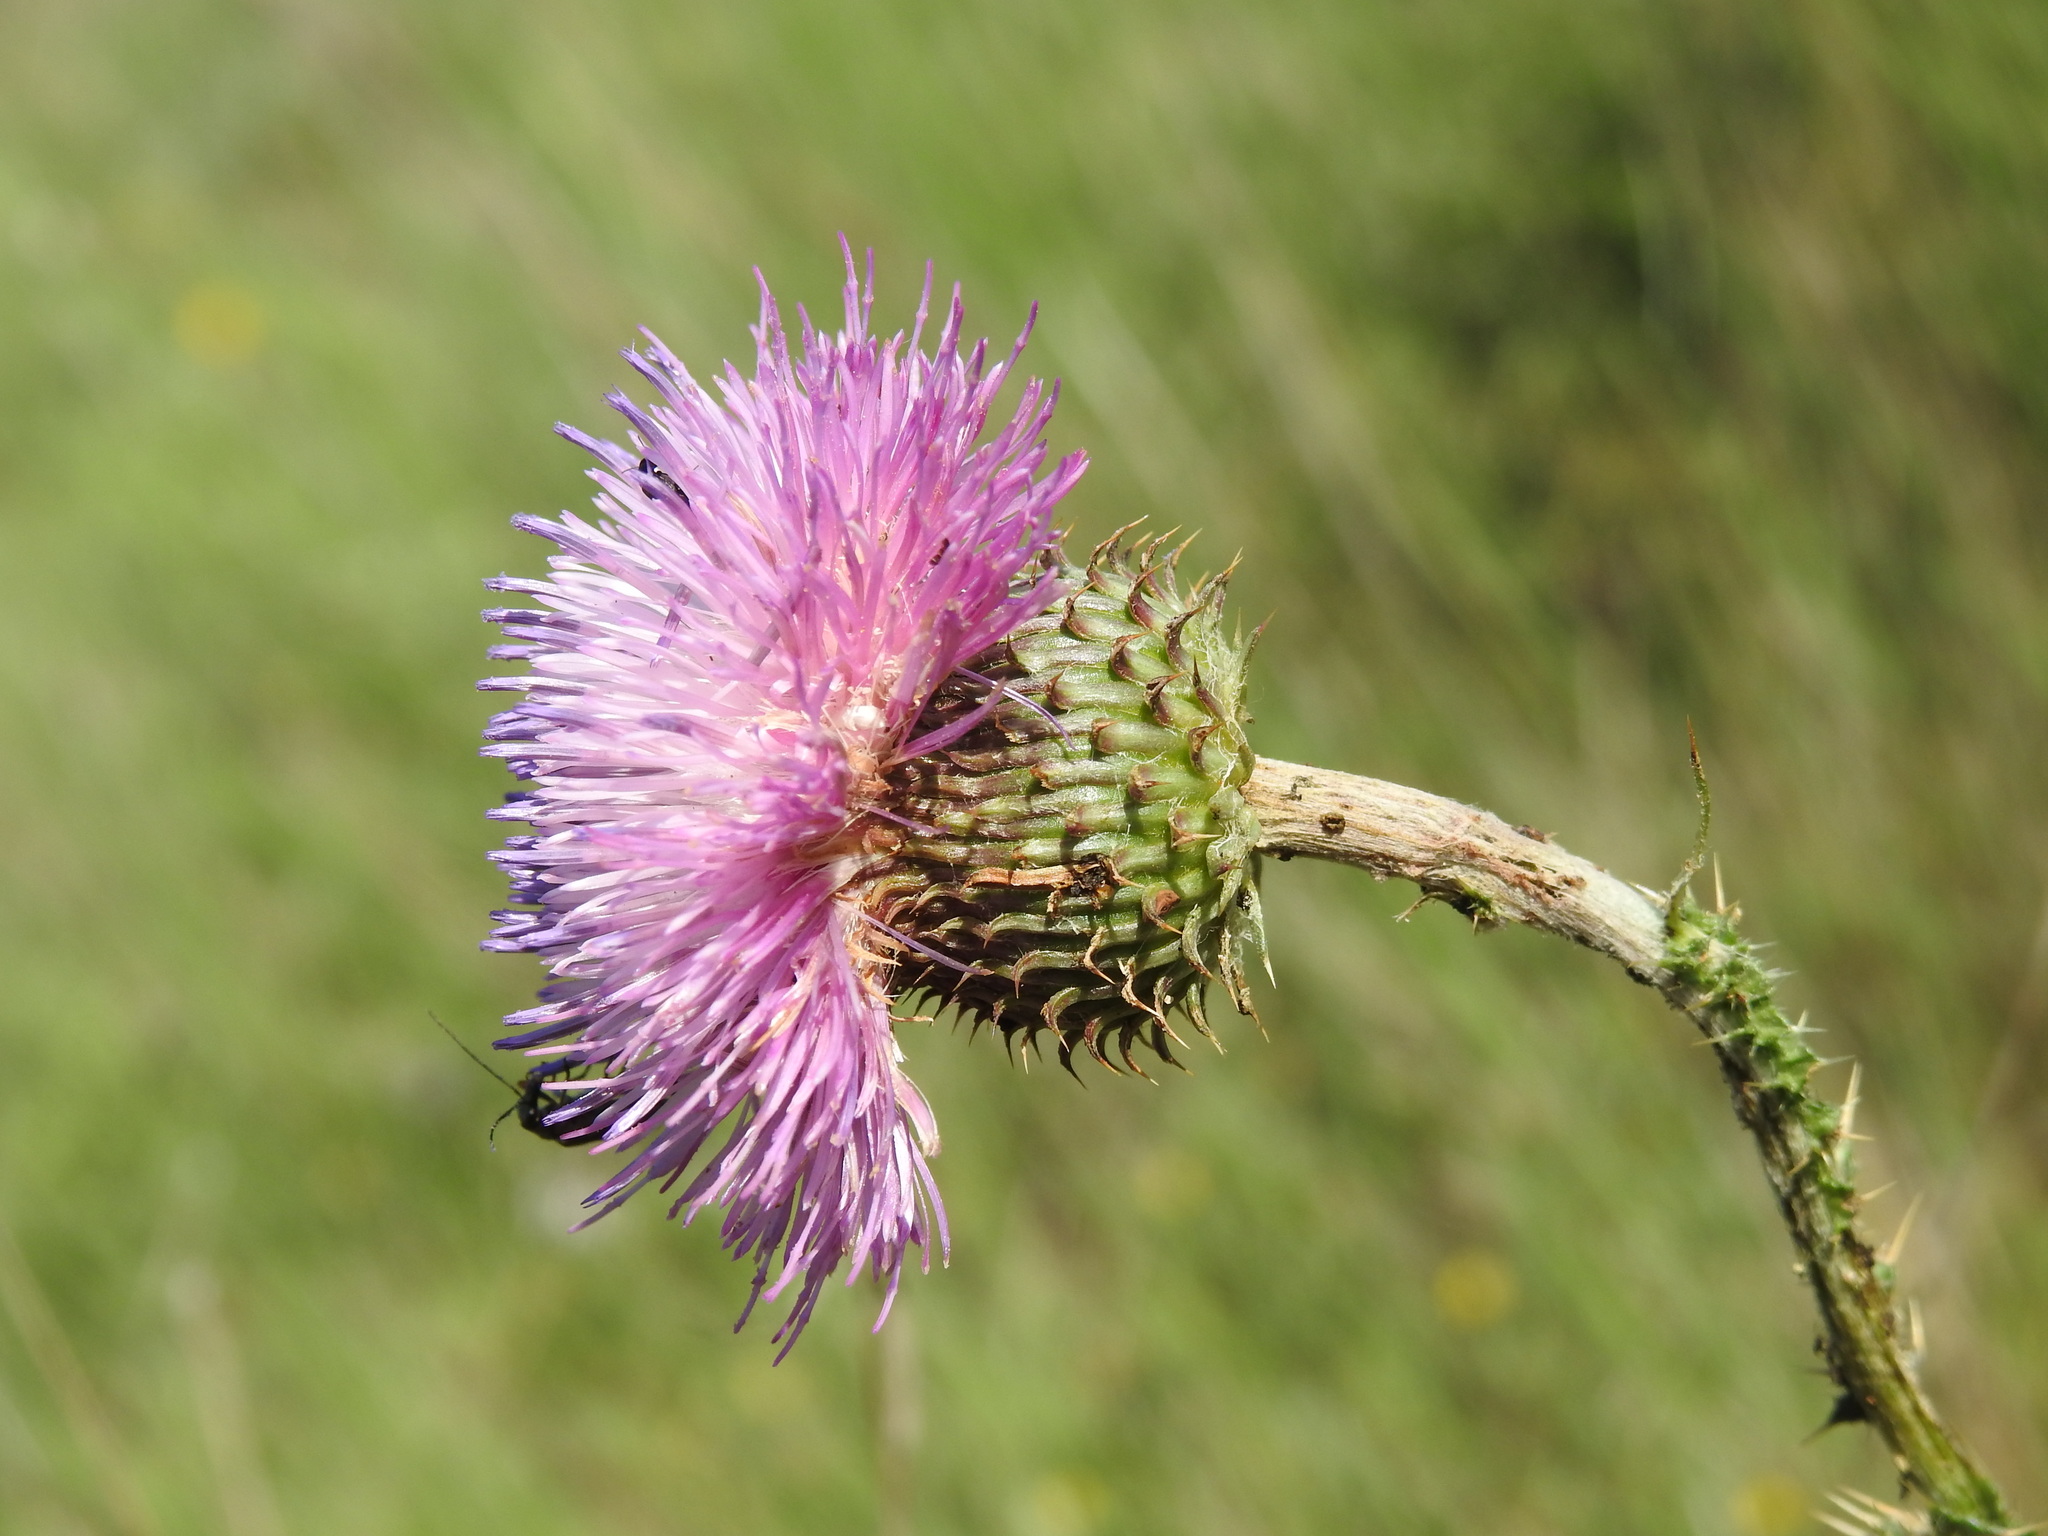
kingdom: Plantae
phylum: Tracheophyta
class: Magnoliopsida
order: Asterales
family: Asteraceae
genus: Carduus
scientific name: Carduus nigrescens
